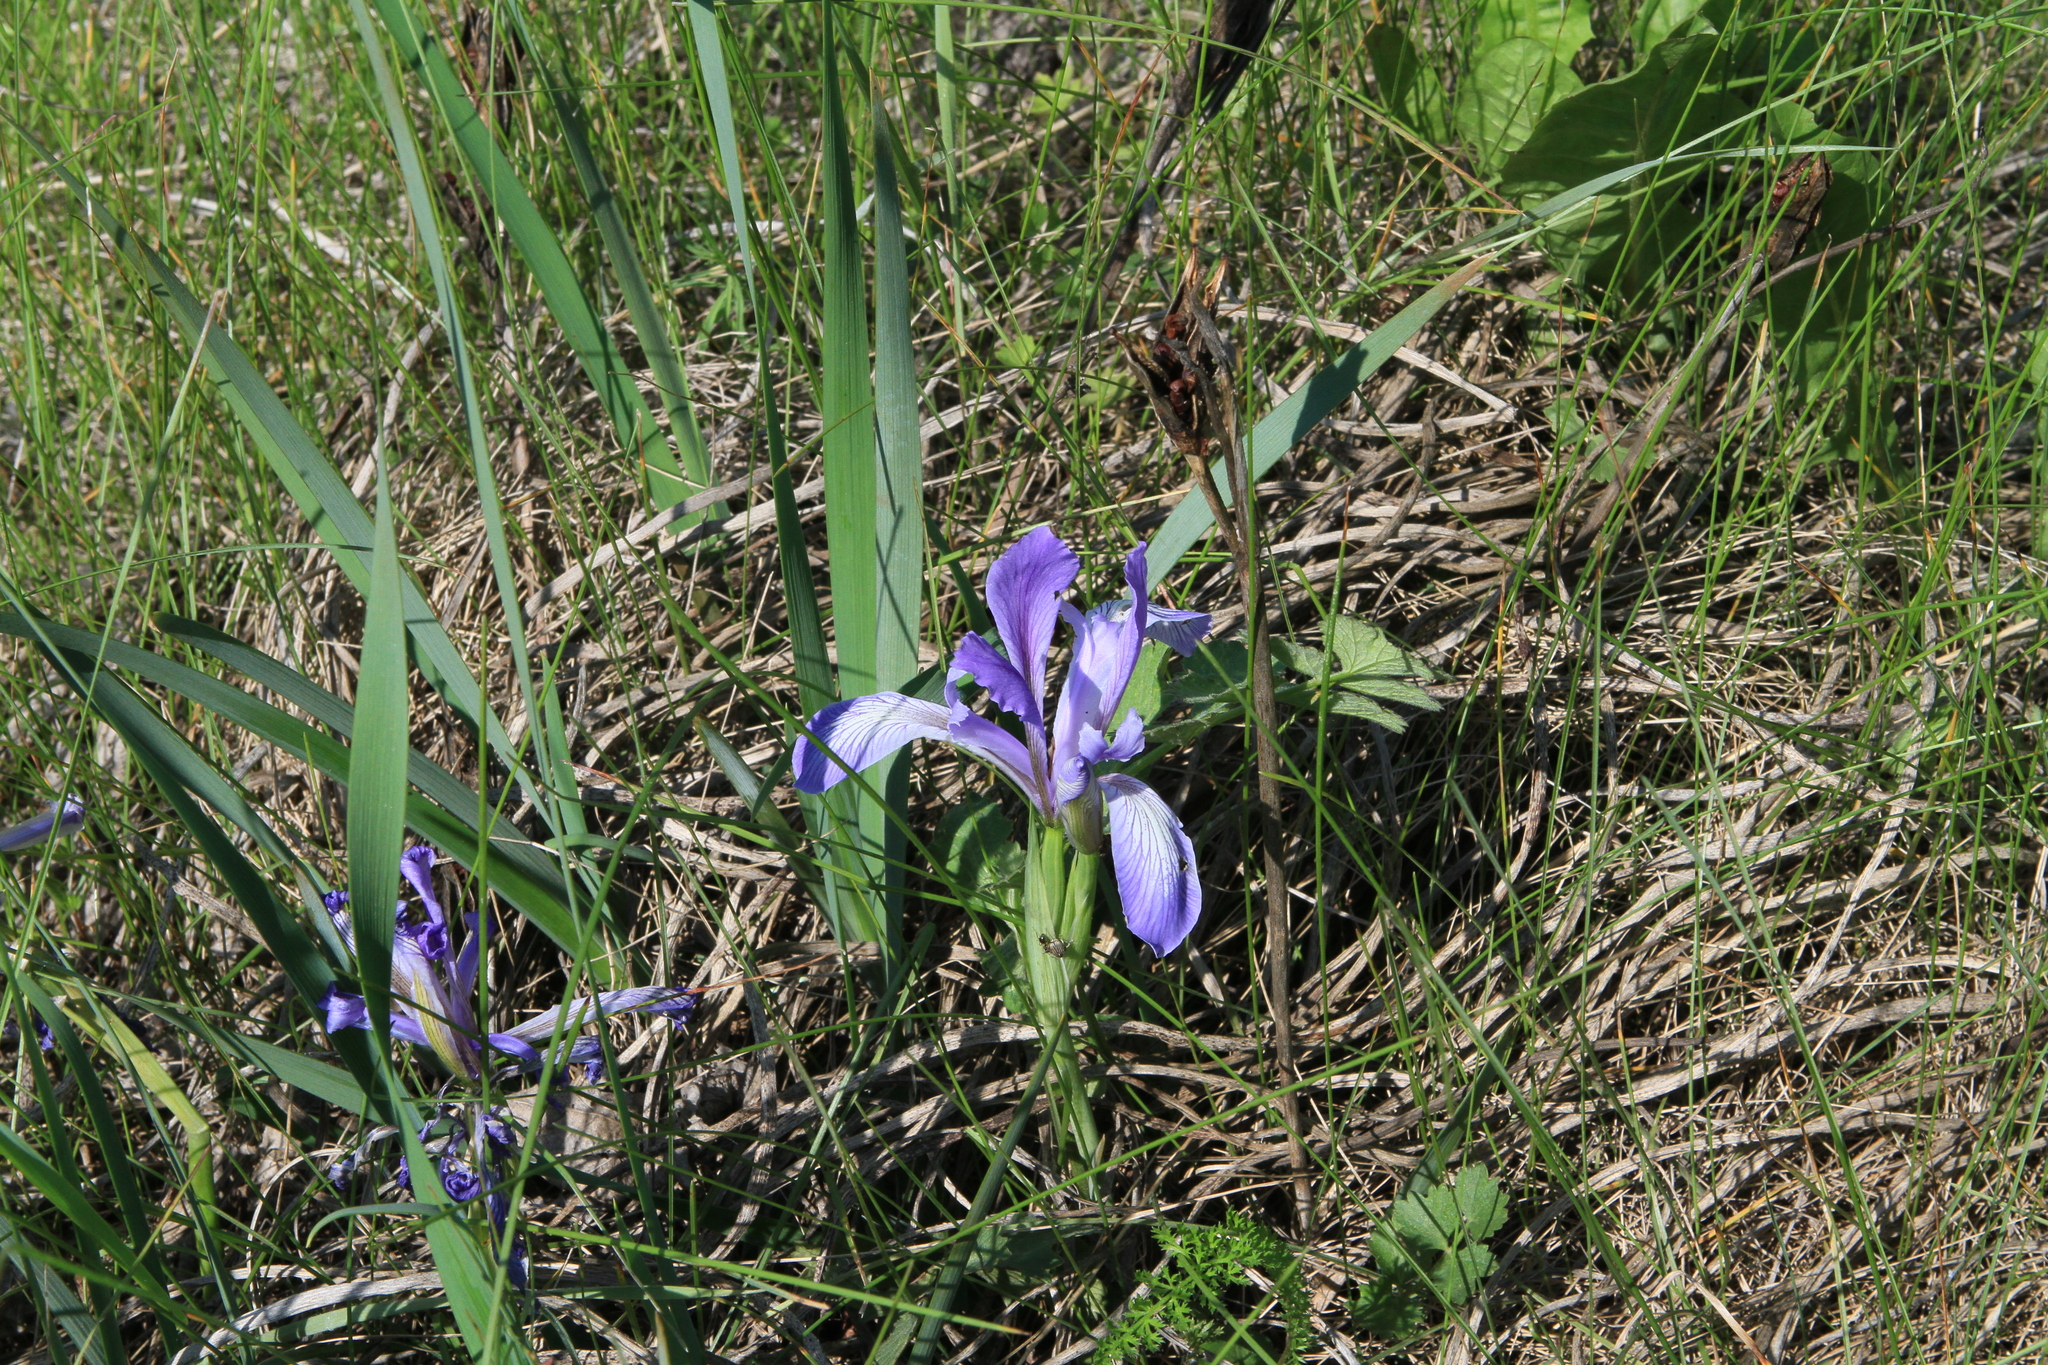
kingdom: Plantae
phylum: Tracheophyta
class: Liliopsida
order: Asparagales
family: Iridaceae
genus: Iris
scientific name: Iris lactea
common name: White-flower chinese iris
